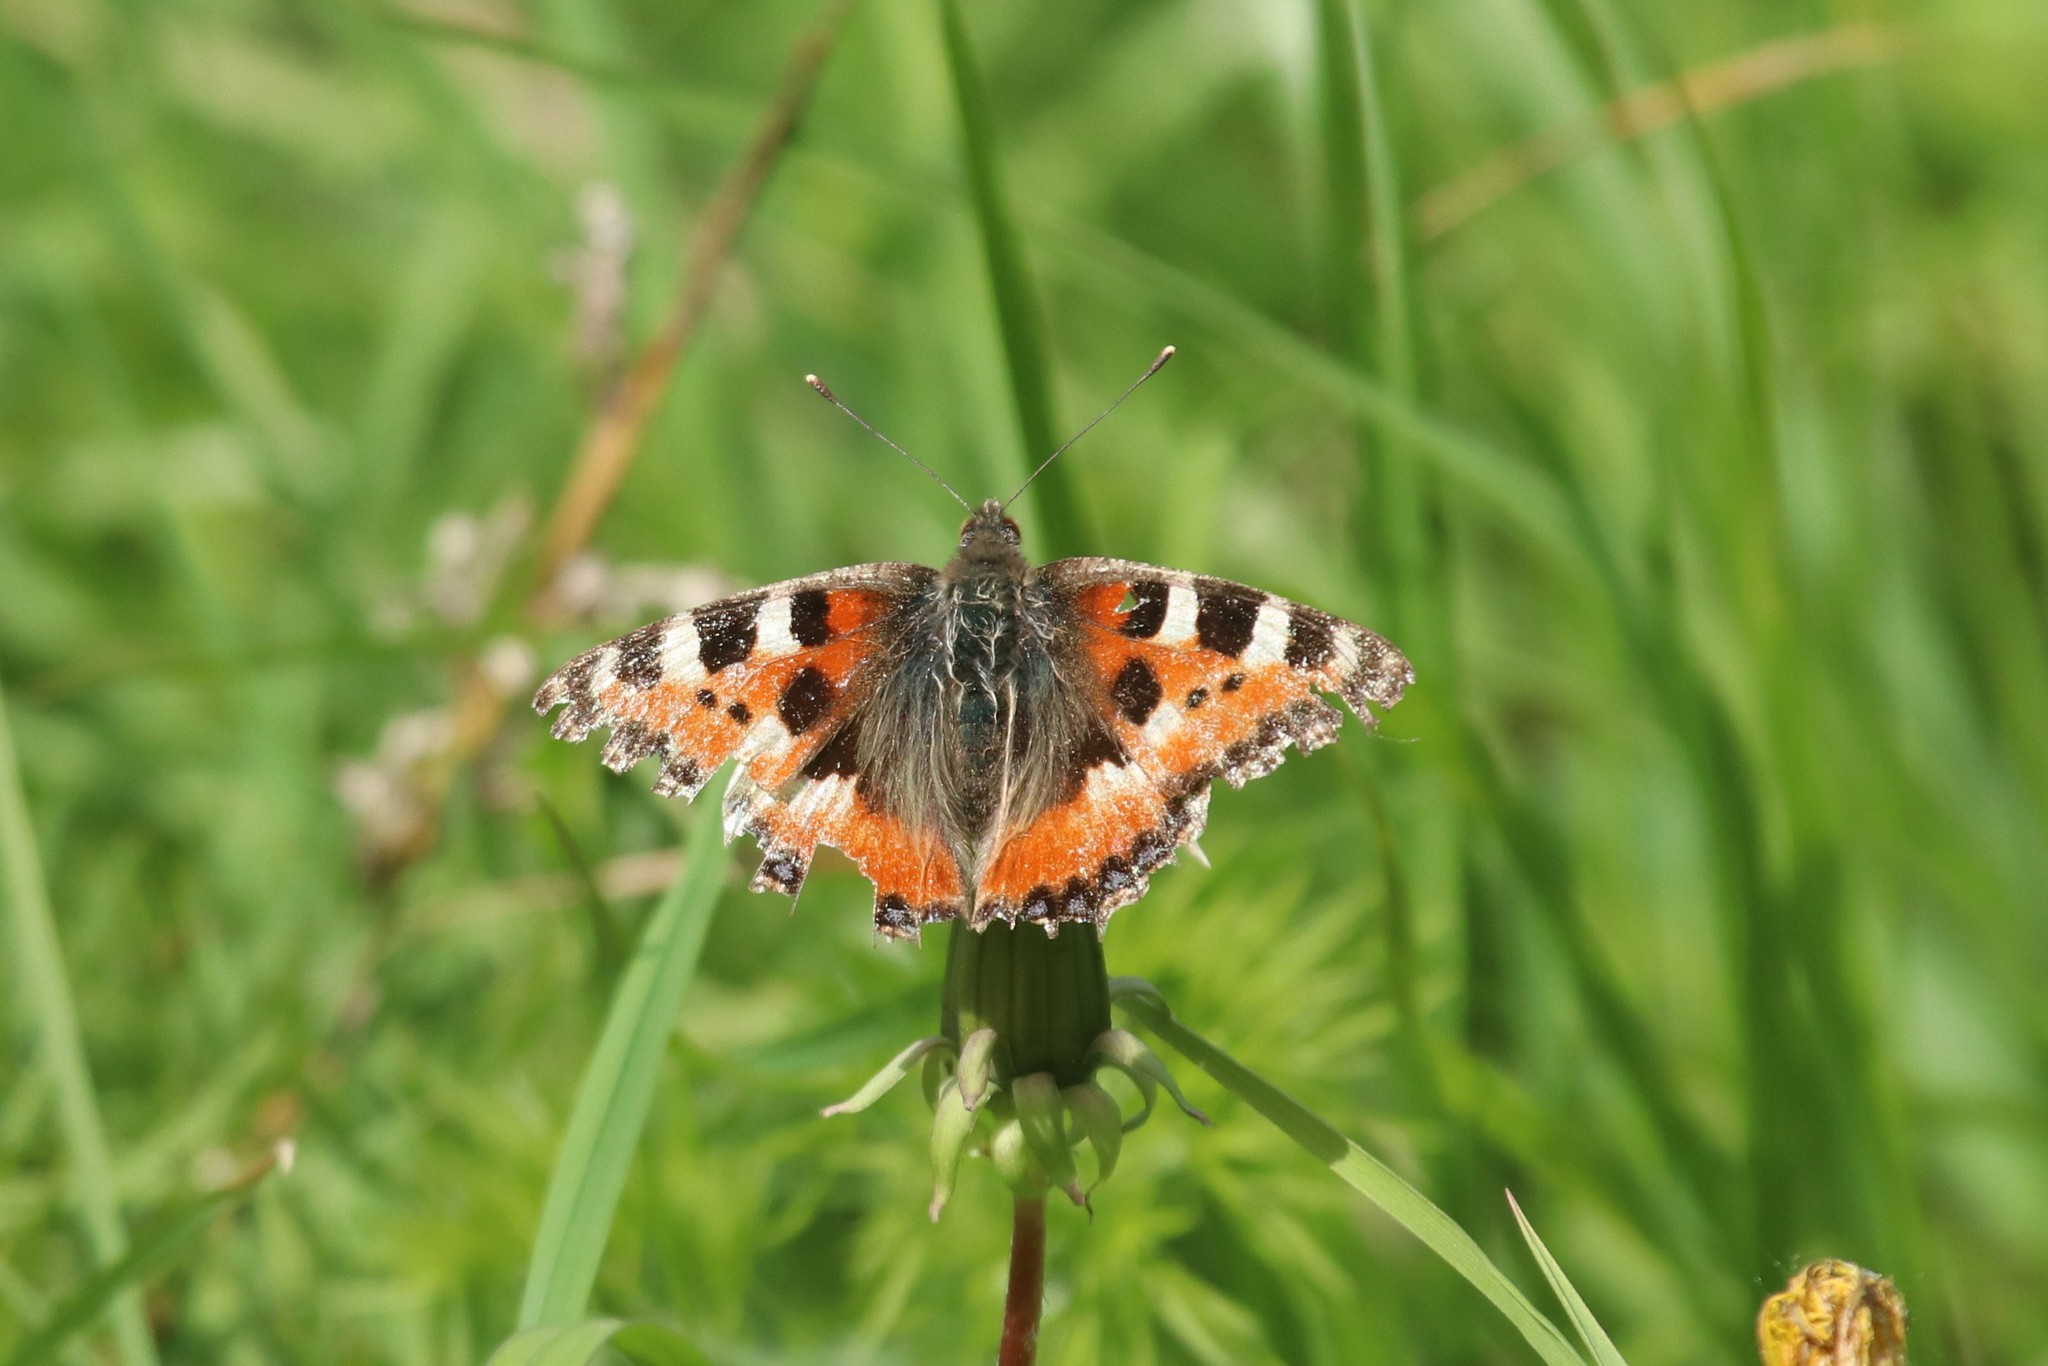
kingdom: Animalia
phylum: Arthropoda
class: Insecta
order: Lepidoptera
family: Nymphalidae
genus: Aglais
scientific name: Aglais urticae
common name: Small tortoiseshell
